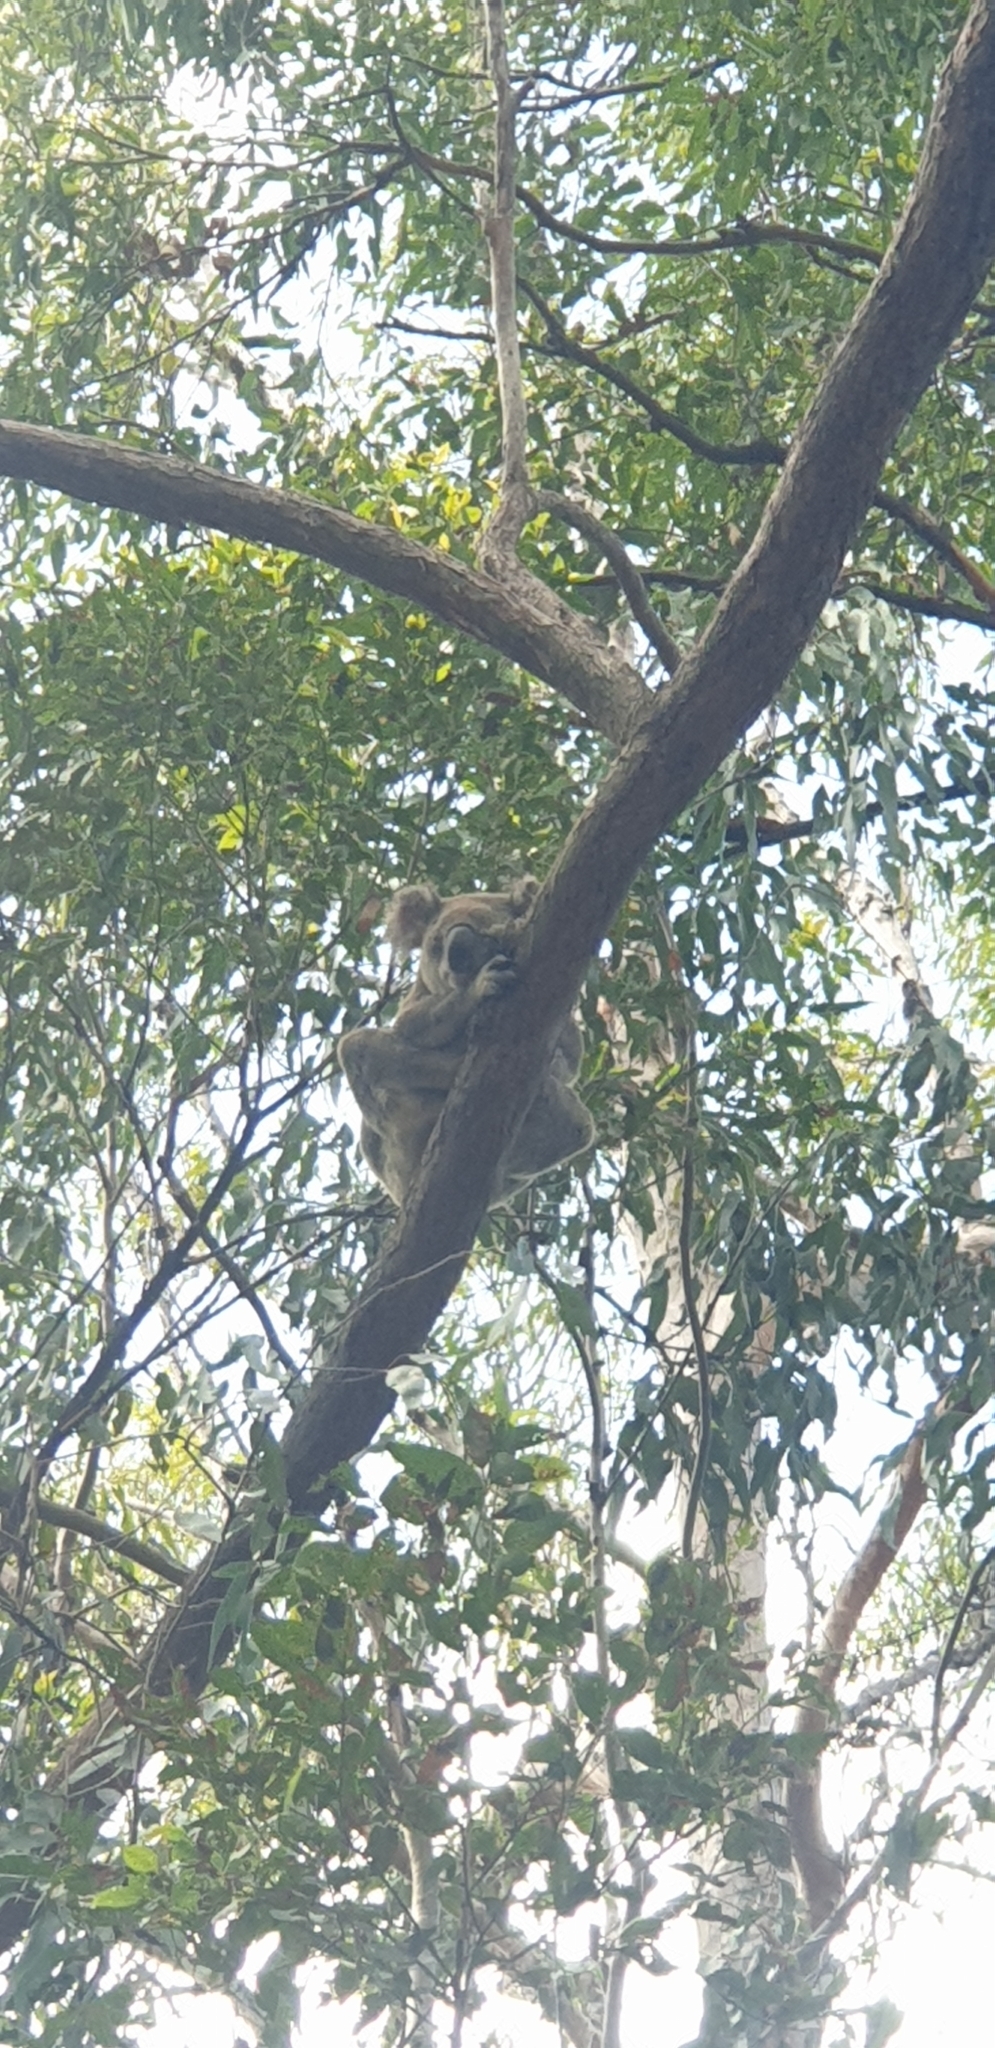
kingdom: Animalia
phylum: Chordata
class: Mammalia
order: Diprotodontia
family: Phascolarctidae
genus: Phascolarctos
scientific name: Phascolarctos cinereus
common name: Koala
